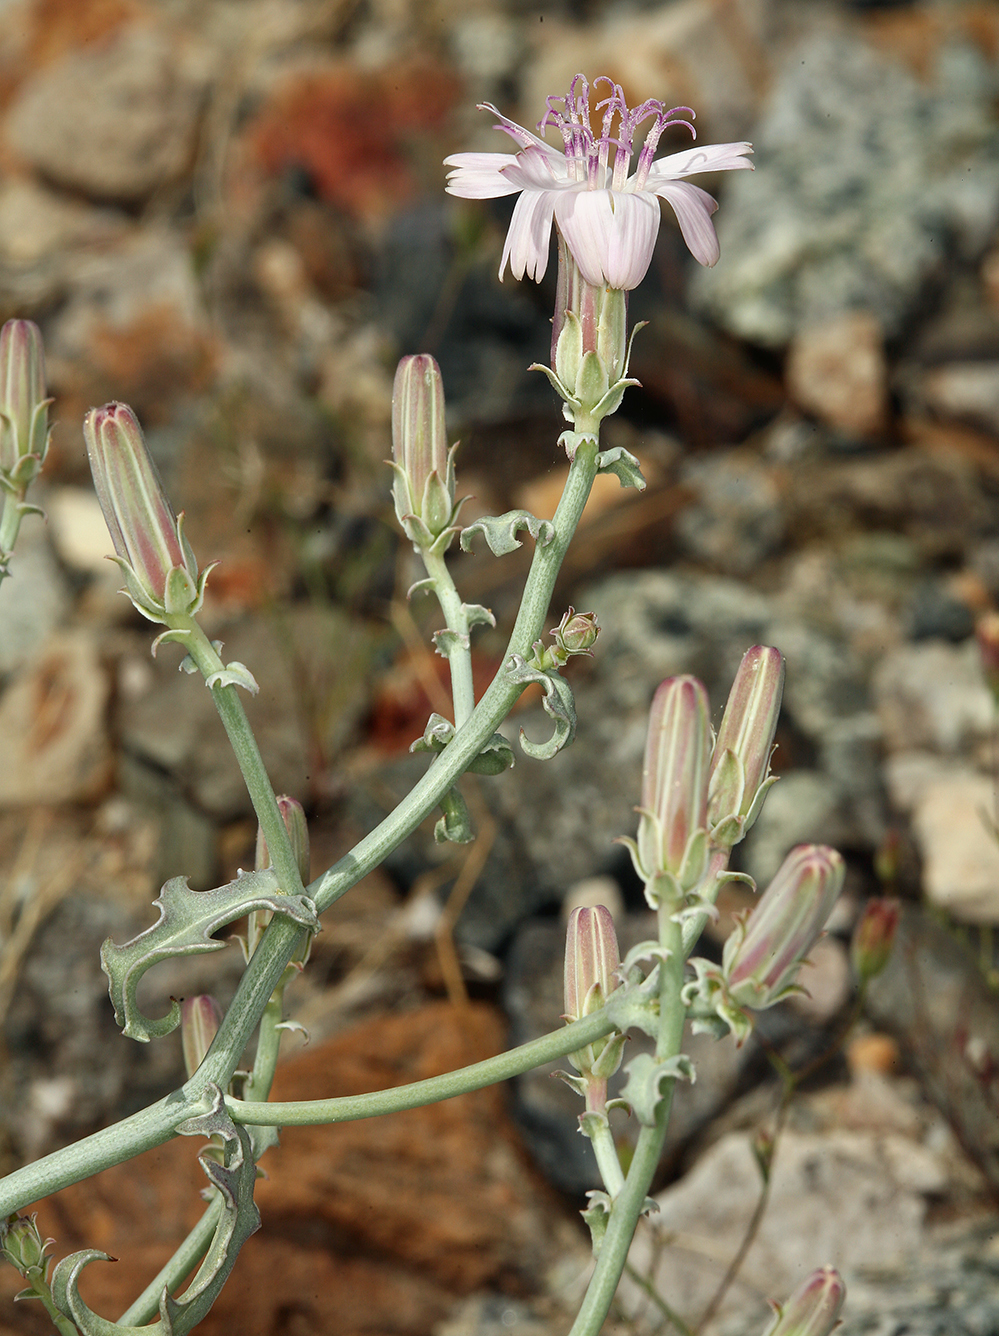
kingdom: Plantae
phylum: Tracheophyta
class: Magnoliopsida
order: Asterales
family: Asteraceae
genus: Stephanomeria
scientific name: Stephanomeria parryi
